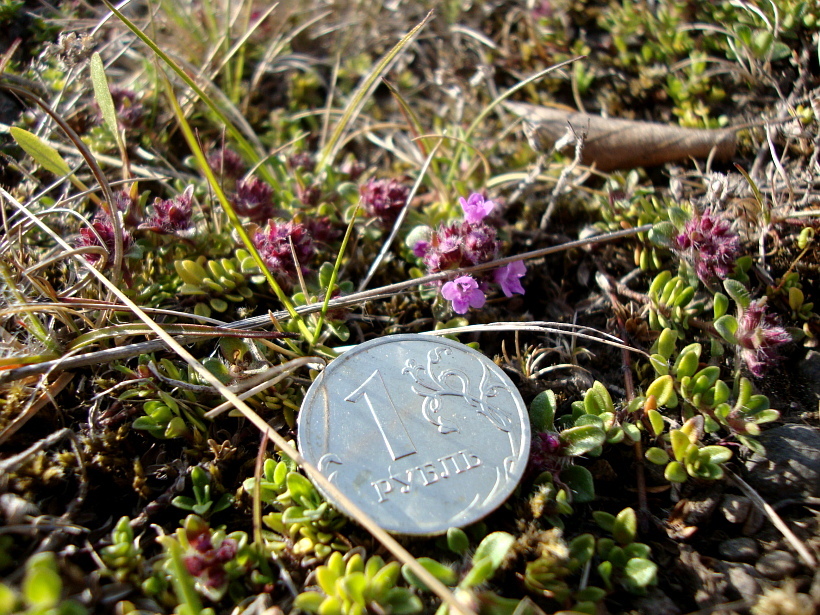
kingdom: Plantae
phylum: Tracheophyta
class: Magnoliopsida
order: Lamiales
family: Lamiaceae
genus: Thymus
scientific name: Thymus praecox
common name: Wild thyme
